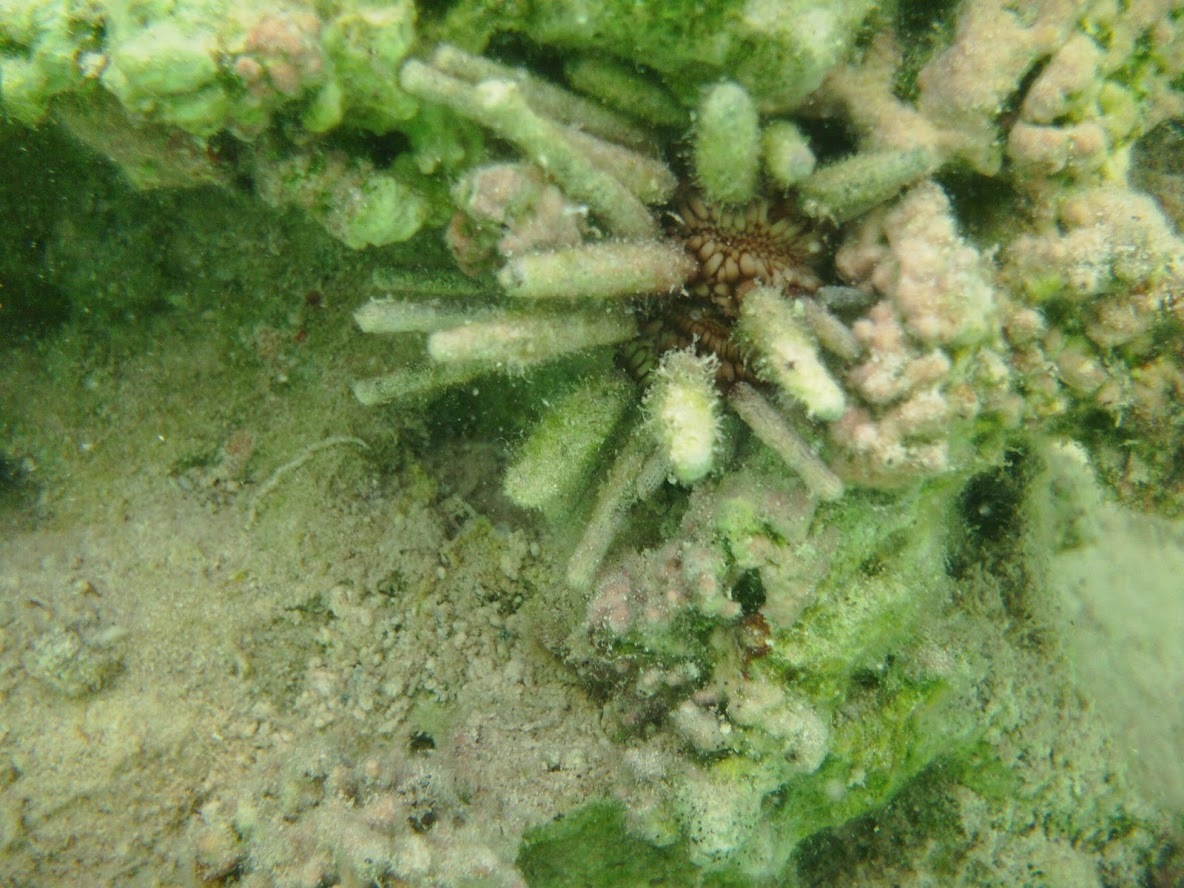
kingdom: Animalia
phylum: Echinodermata
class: Echinoidea
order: Cidaroida
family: Cidaridae
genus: Eucidaris
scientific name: Eucidaris tribuloides
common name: Slate pencil urchin
